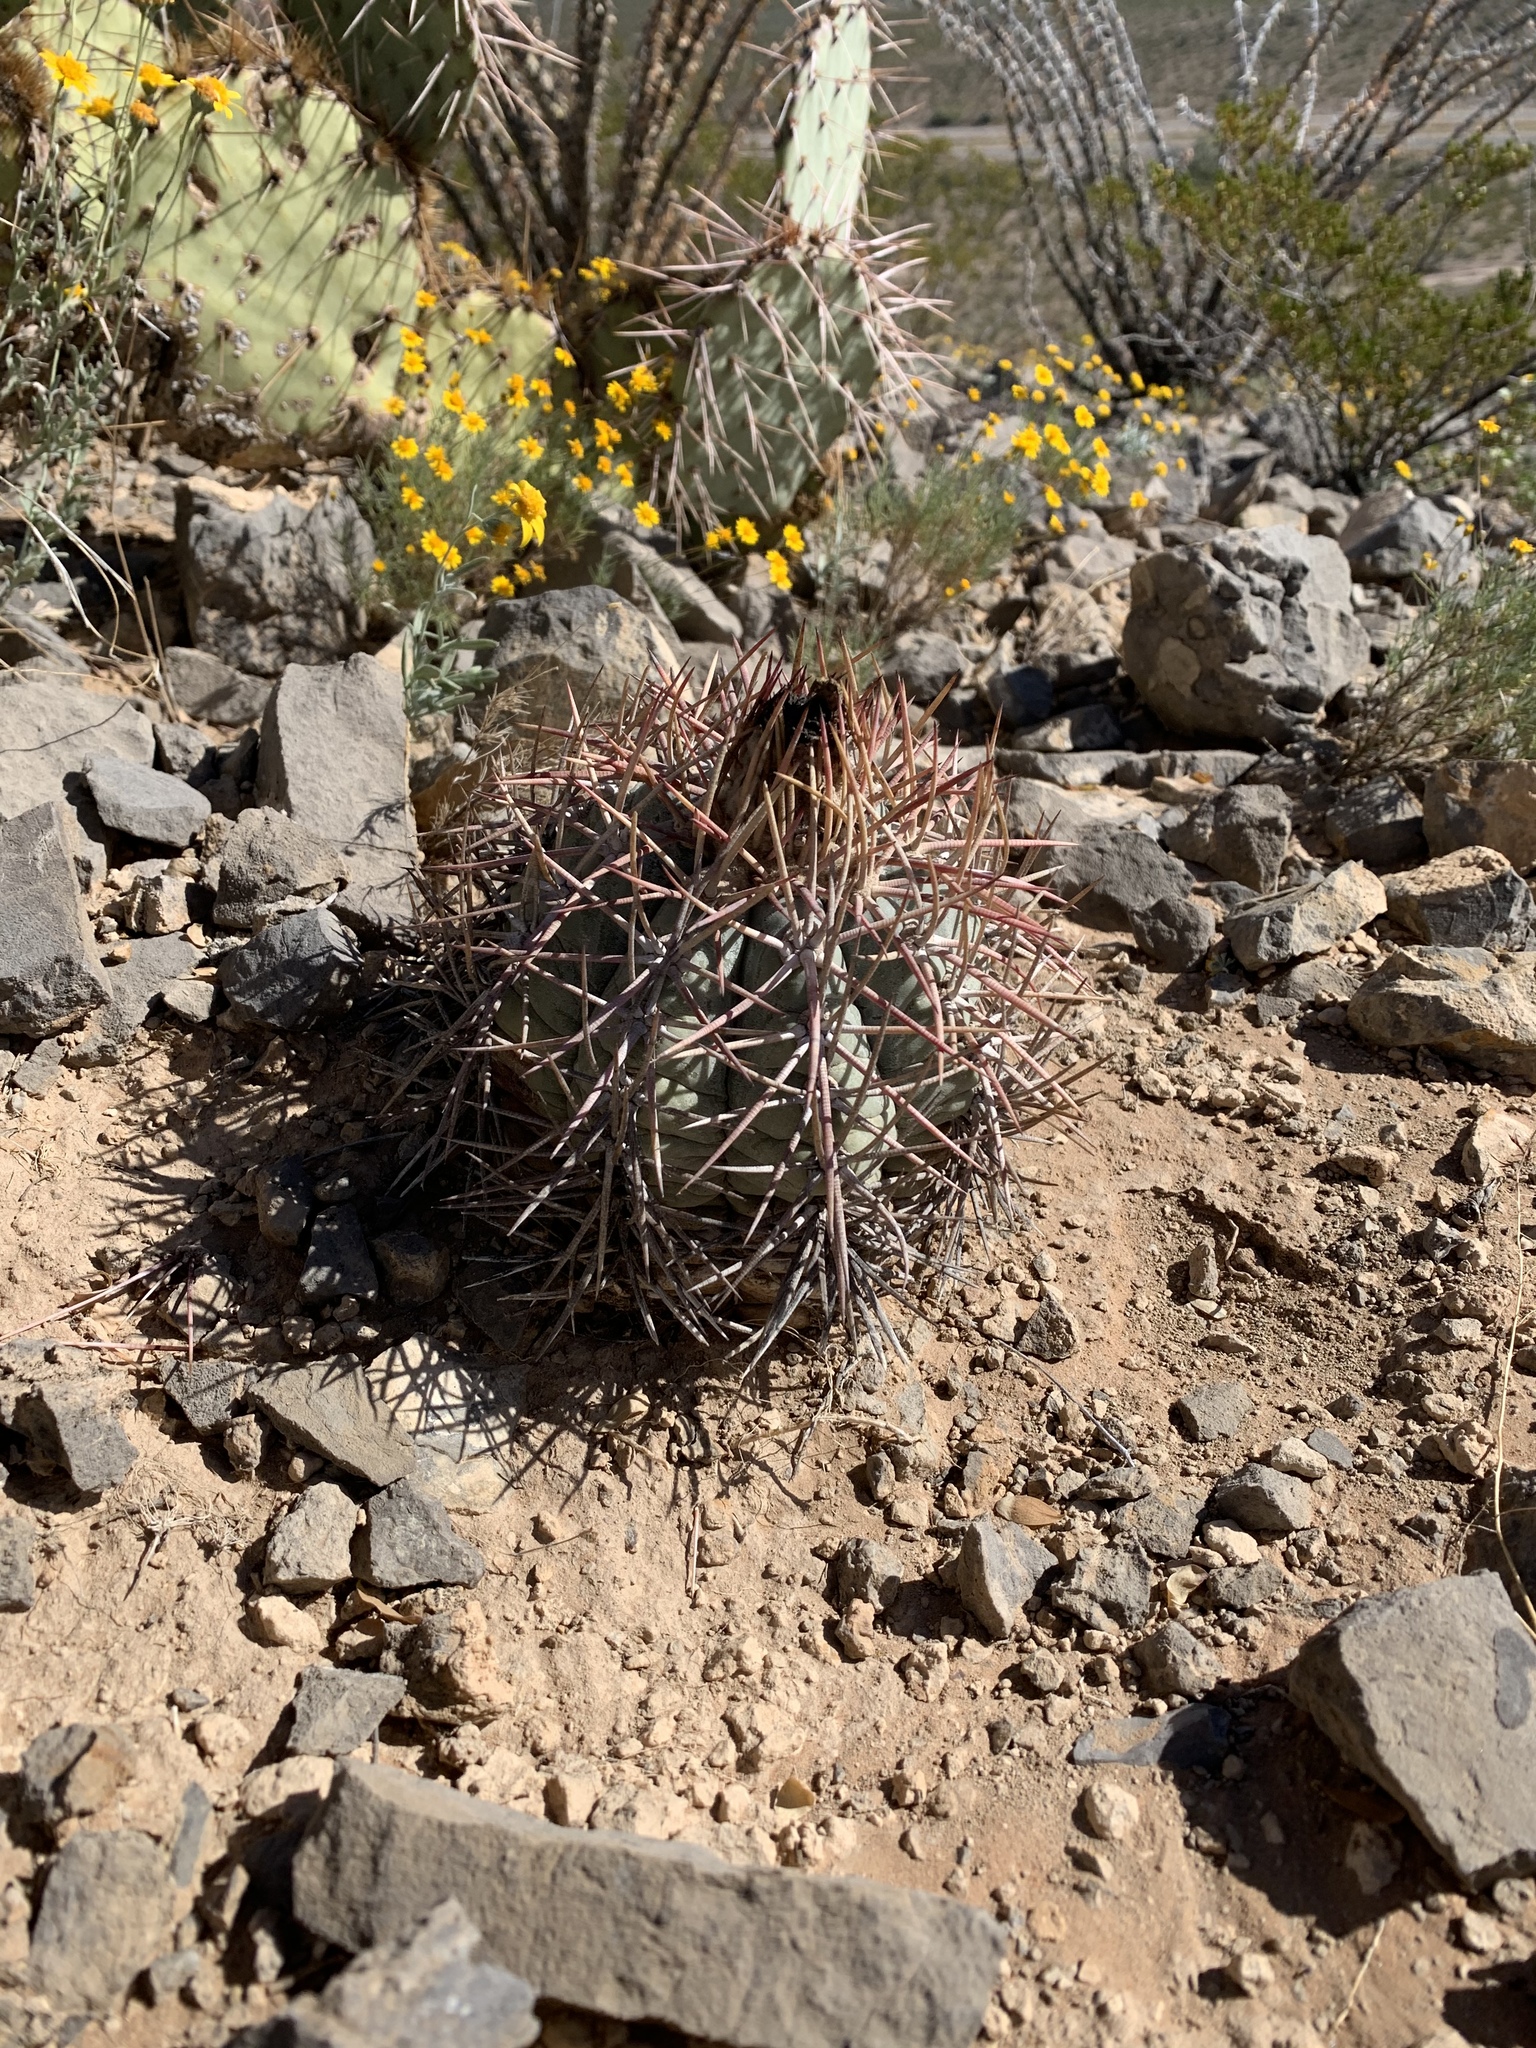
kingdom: Plantae
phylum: Tracheophyta
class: Magnoliopsida
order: Caryophyllales
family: Cactaceae
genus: Echinocactus
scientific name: Echinocactus horizonthalonius
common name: Devilshead
